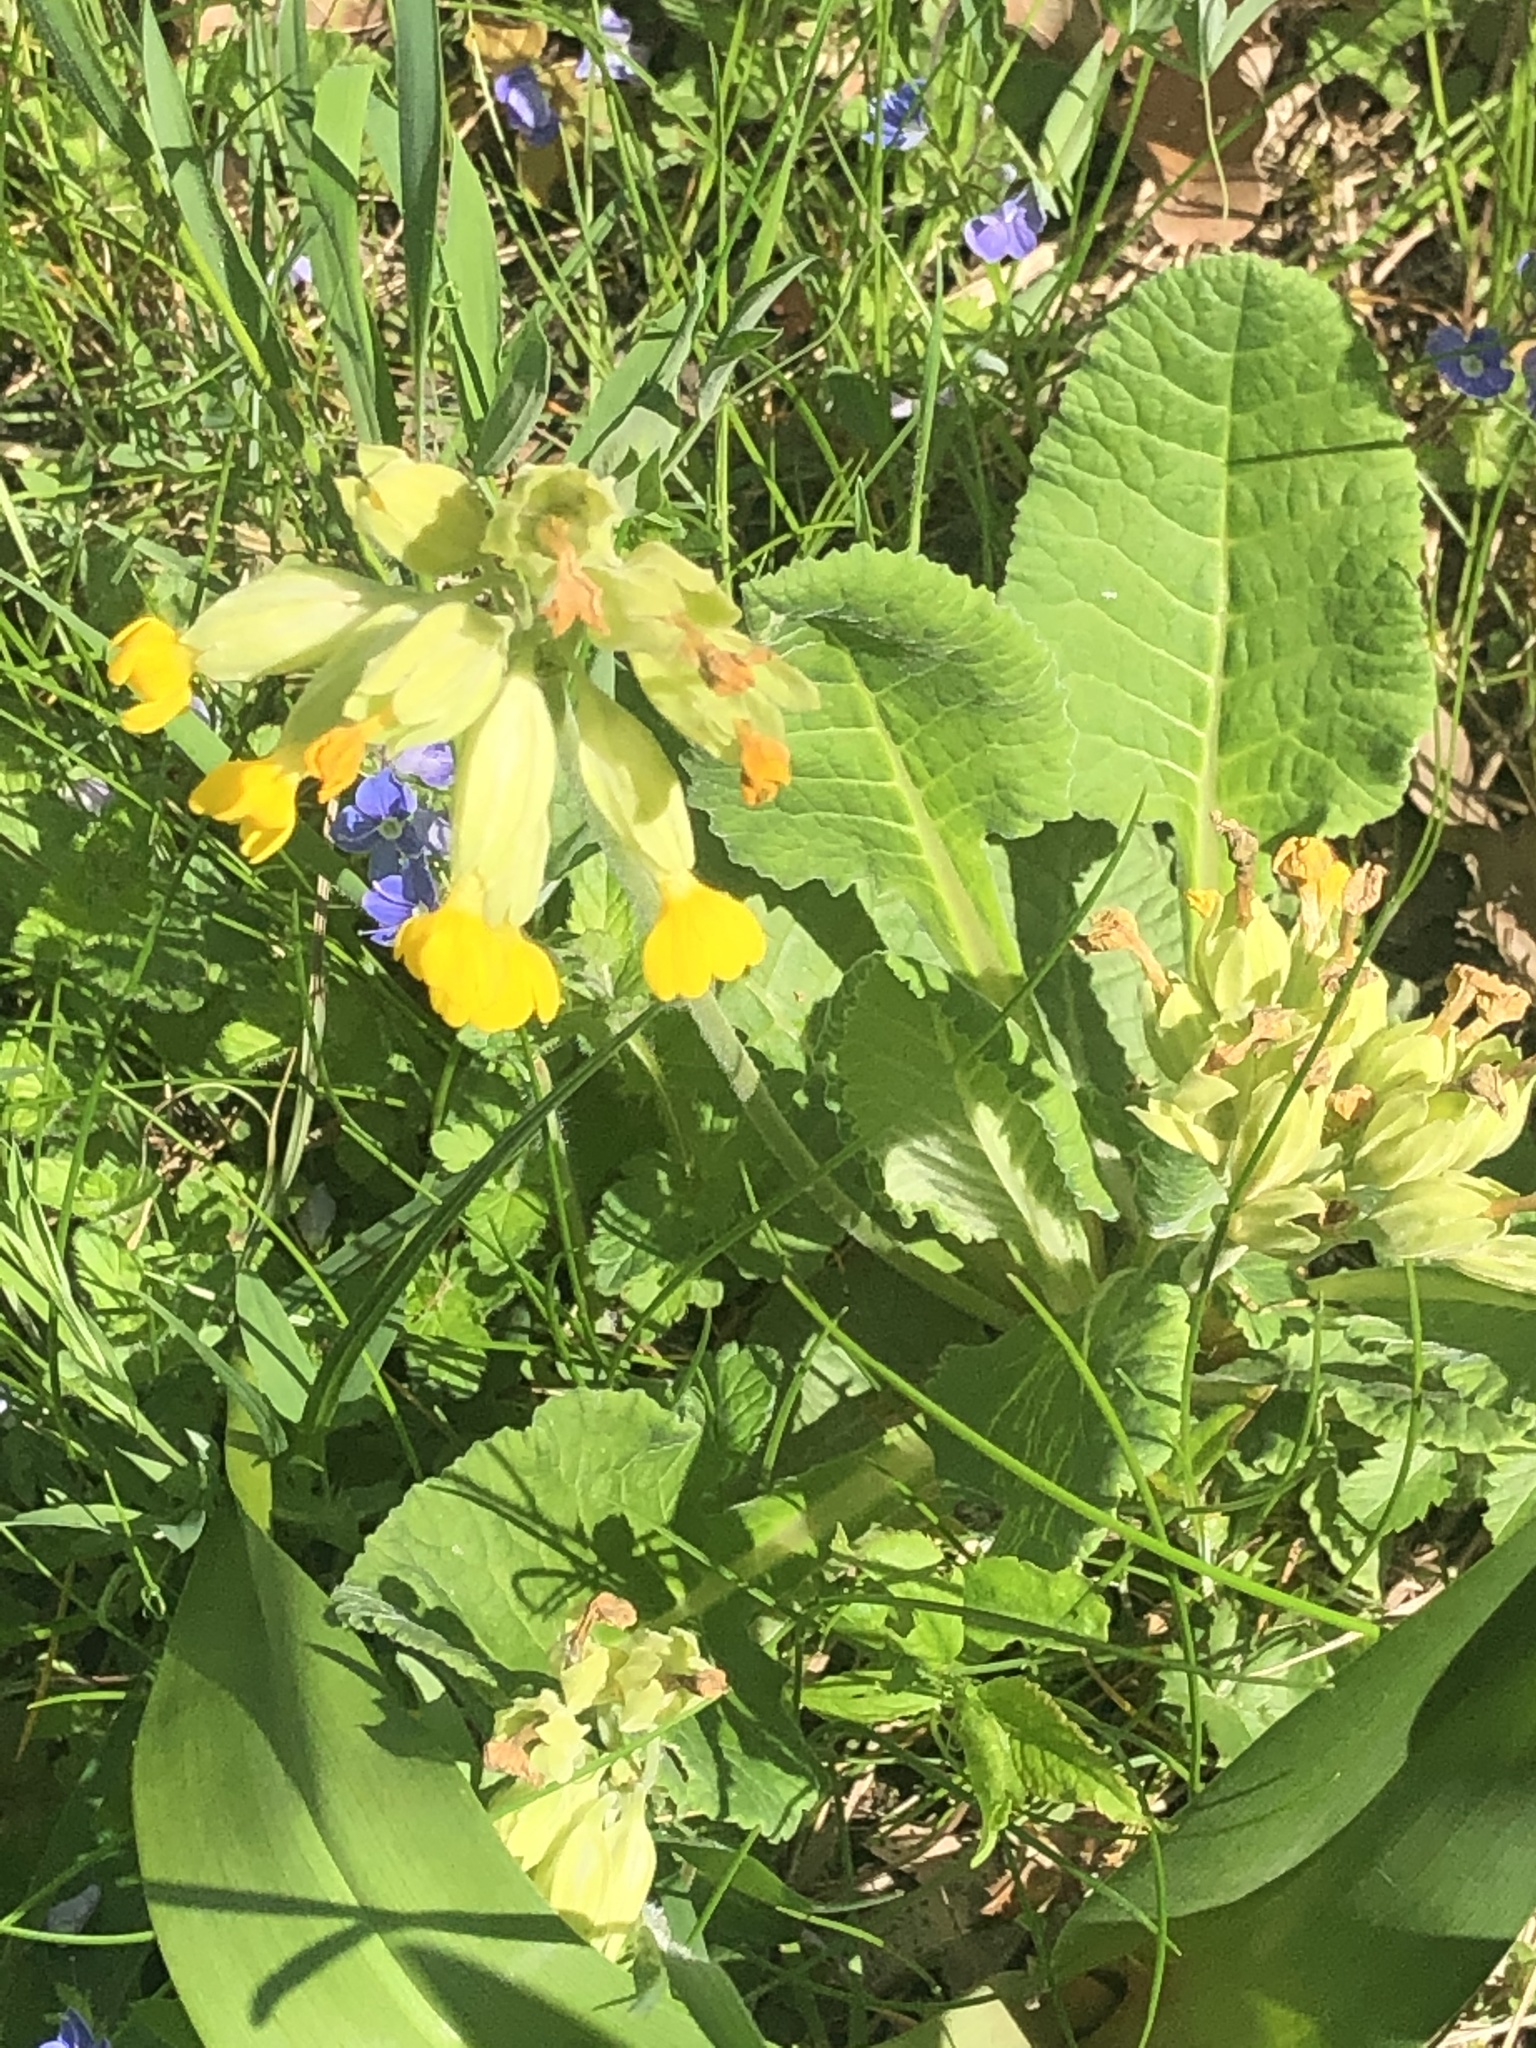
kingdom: Plantae
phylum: Tracheophyta
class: Magnoliopsida
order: Ericales
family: Primulaceae
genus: Primula
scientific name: Primula veris
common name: Cowslip
